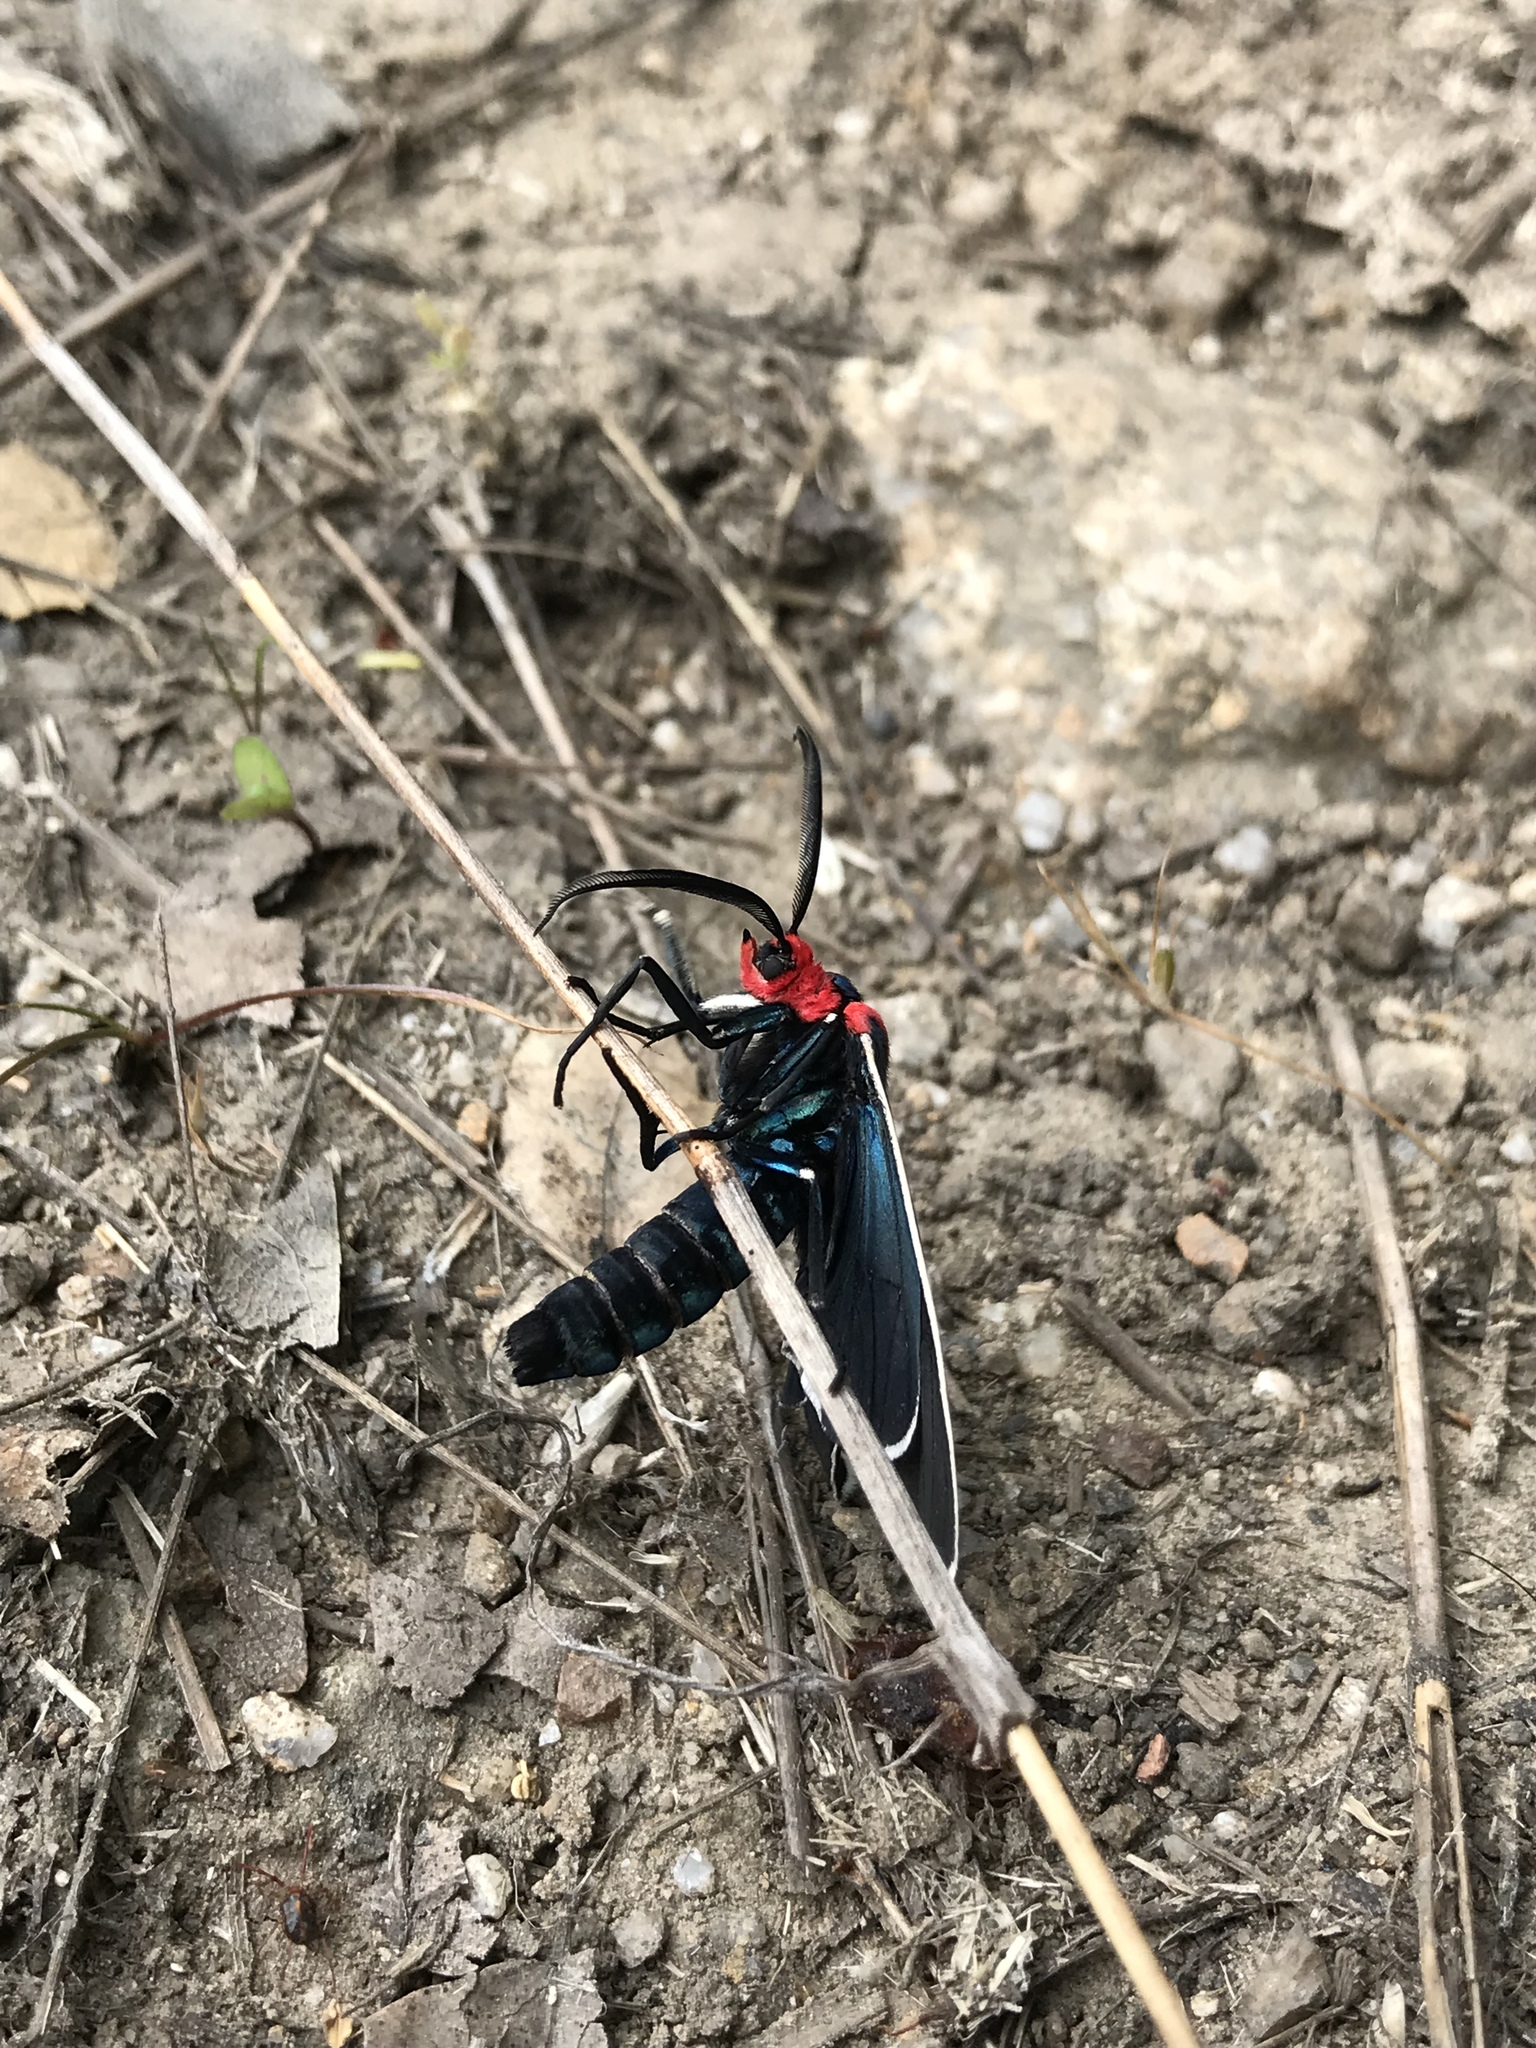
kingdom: Animalia
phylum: Arthropoda
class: Insecta
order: Lepidoptera
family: Erebidae
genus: Ctenucha
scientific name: Ctenucha multifaria
